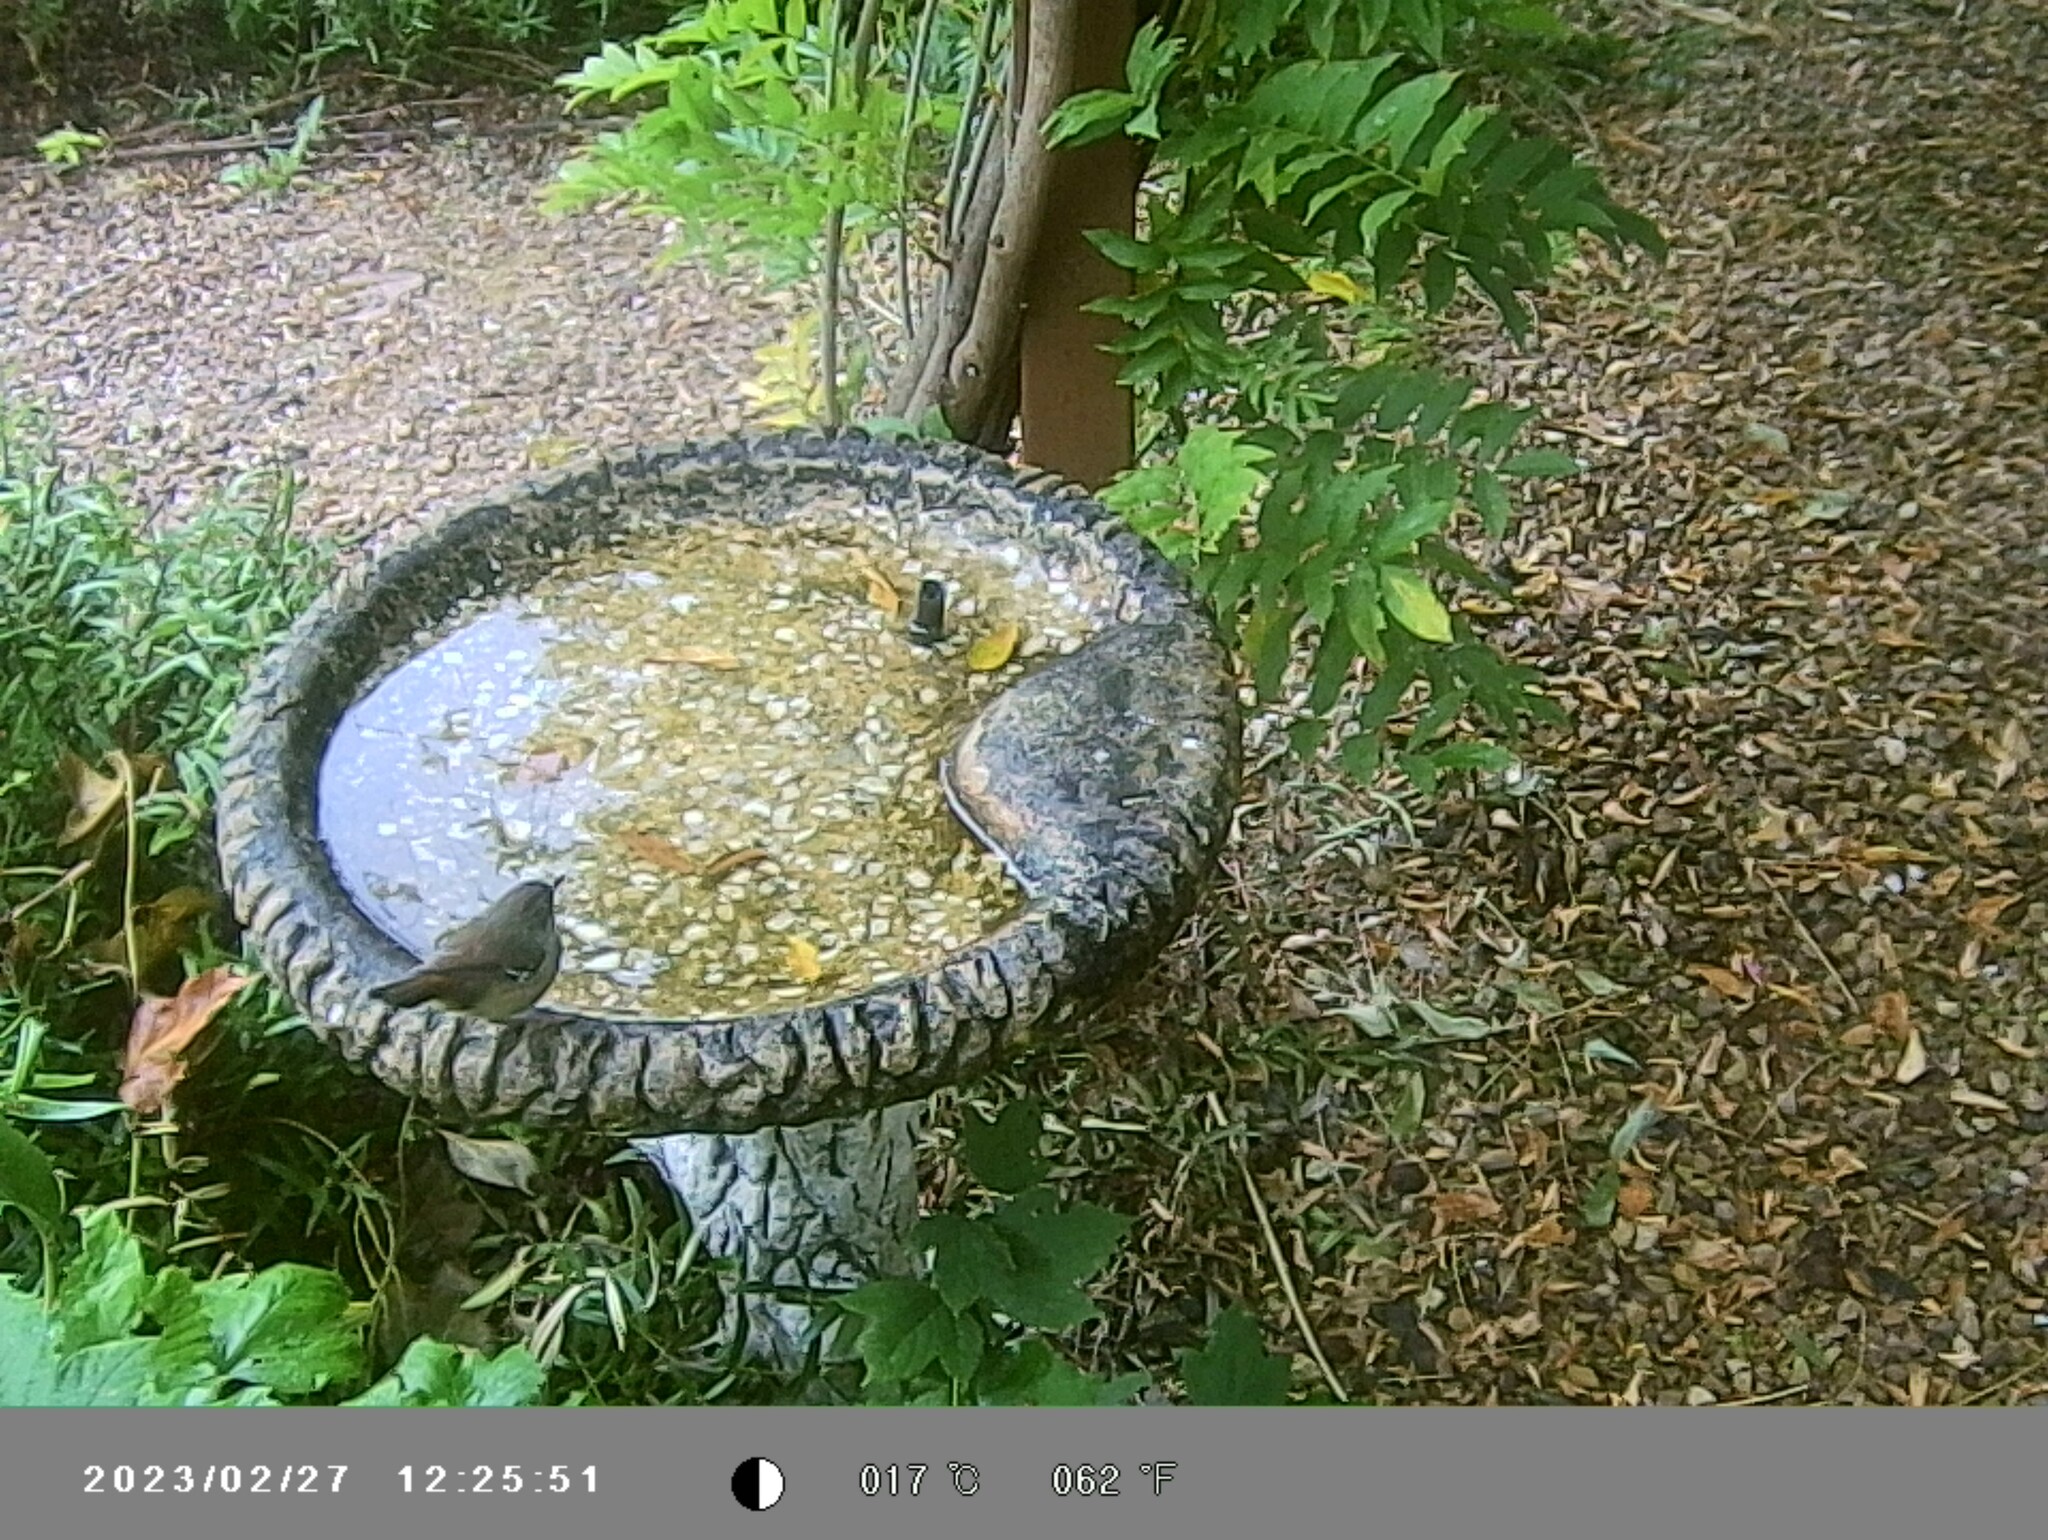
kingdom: Animalia
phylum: Chordata
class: Aves
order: Passeriformes
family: Acanthizidae
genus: Sericornis
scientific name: Sericornis frontalis
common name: White-browed scrubwren
